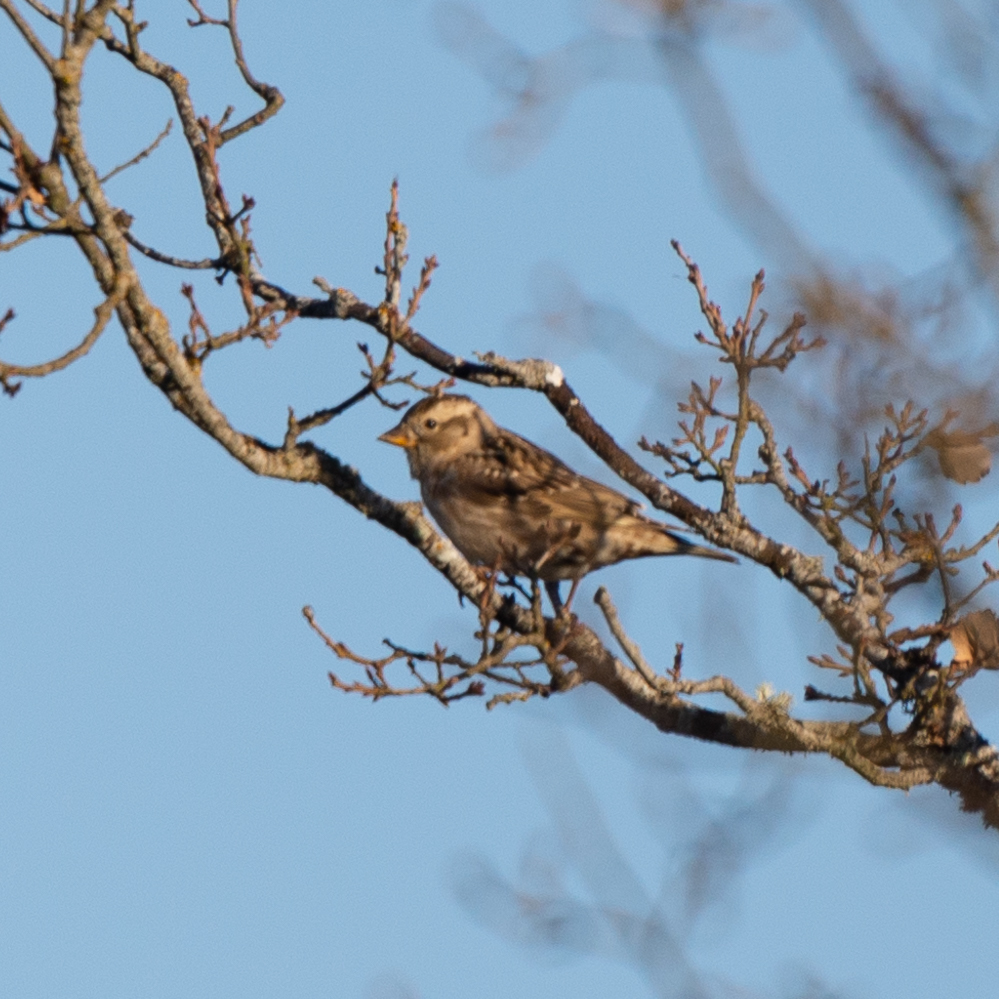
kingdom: Animalia
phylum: Chordata
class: Aves
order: Passeriformes
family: Passeridae
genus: Petronia
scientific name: Petronia petronia
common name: Rock sparrow
